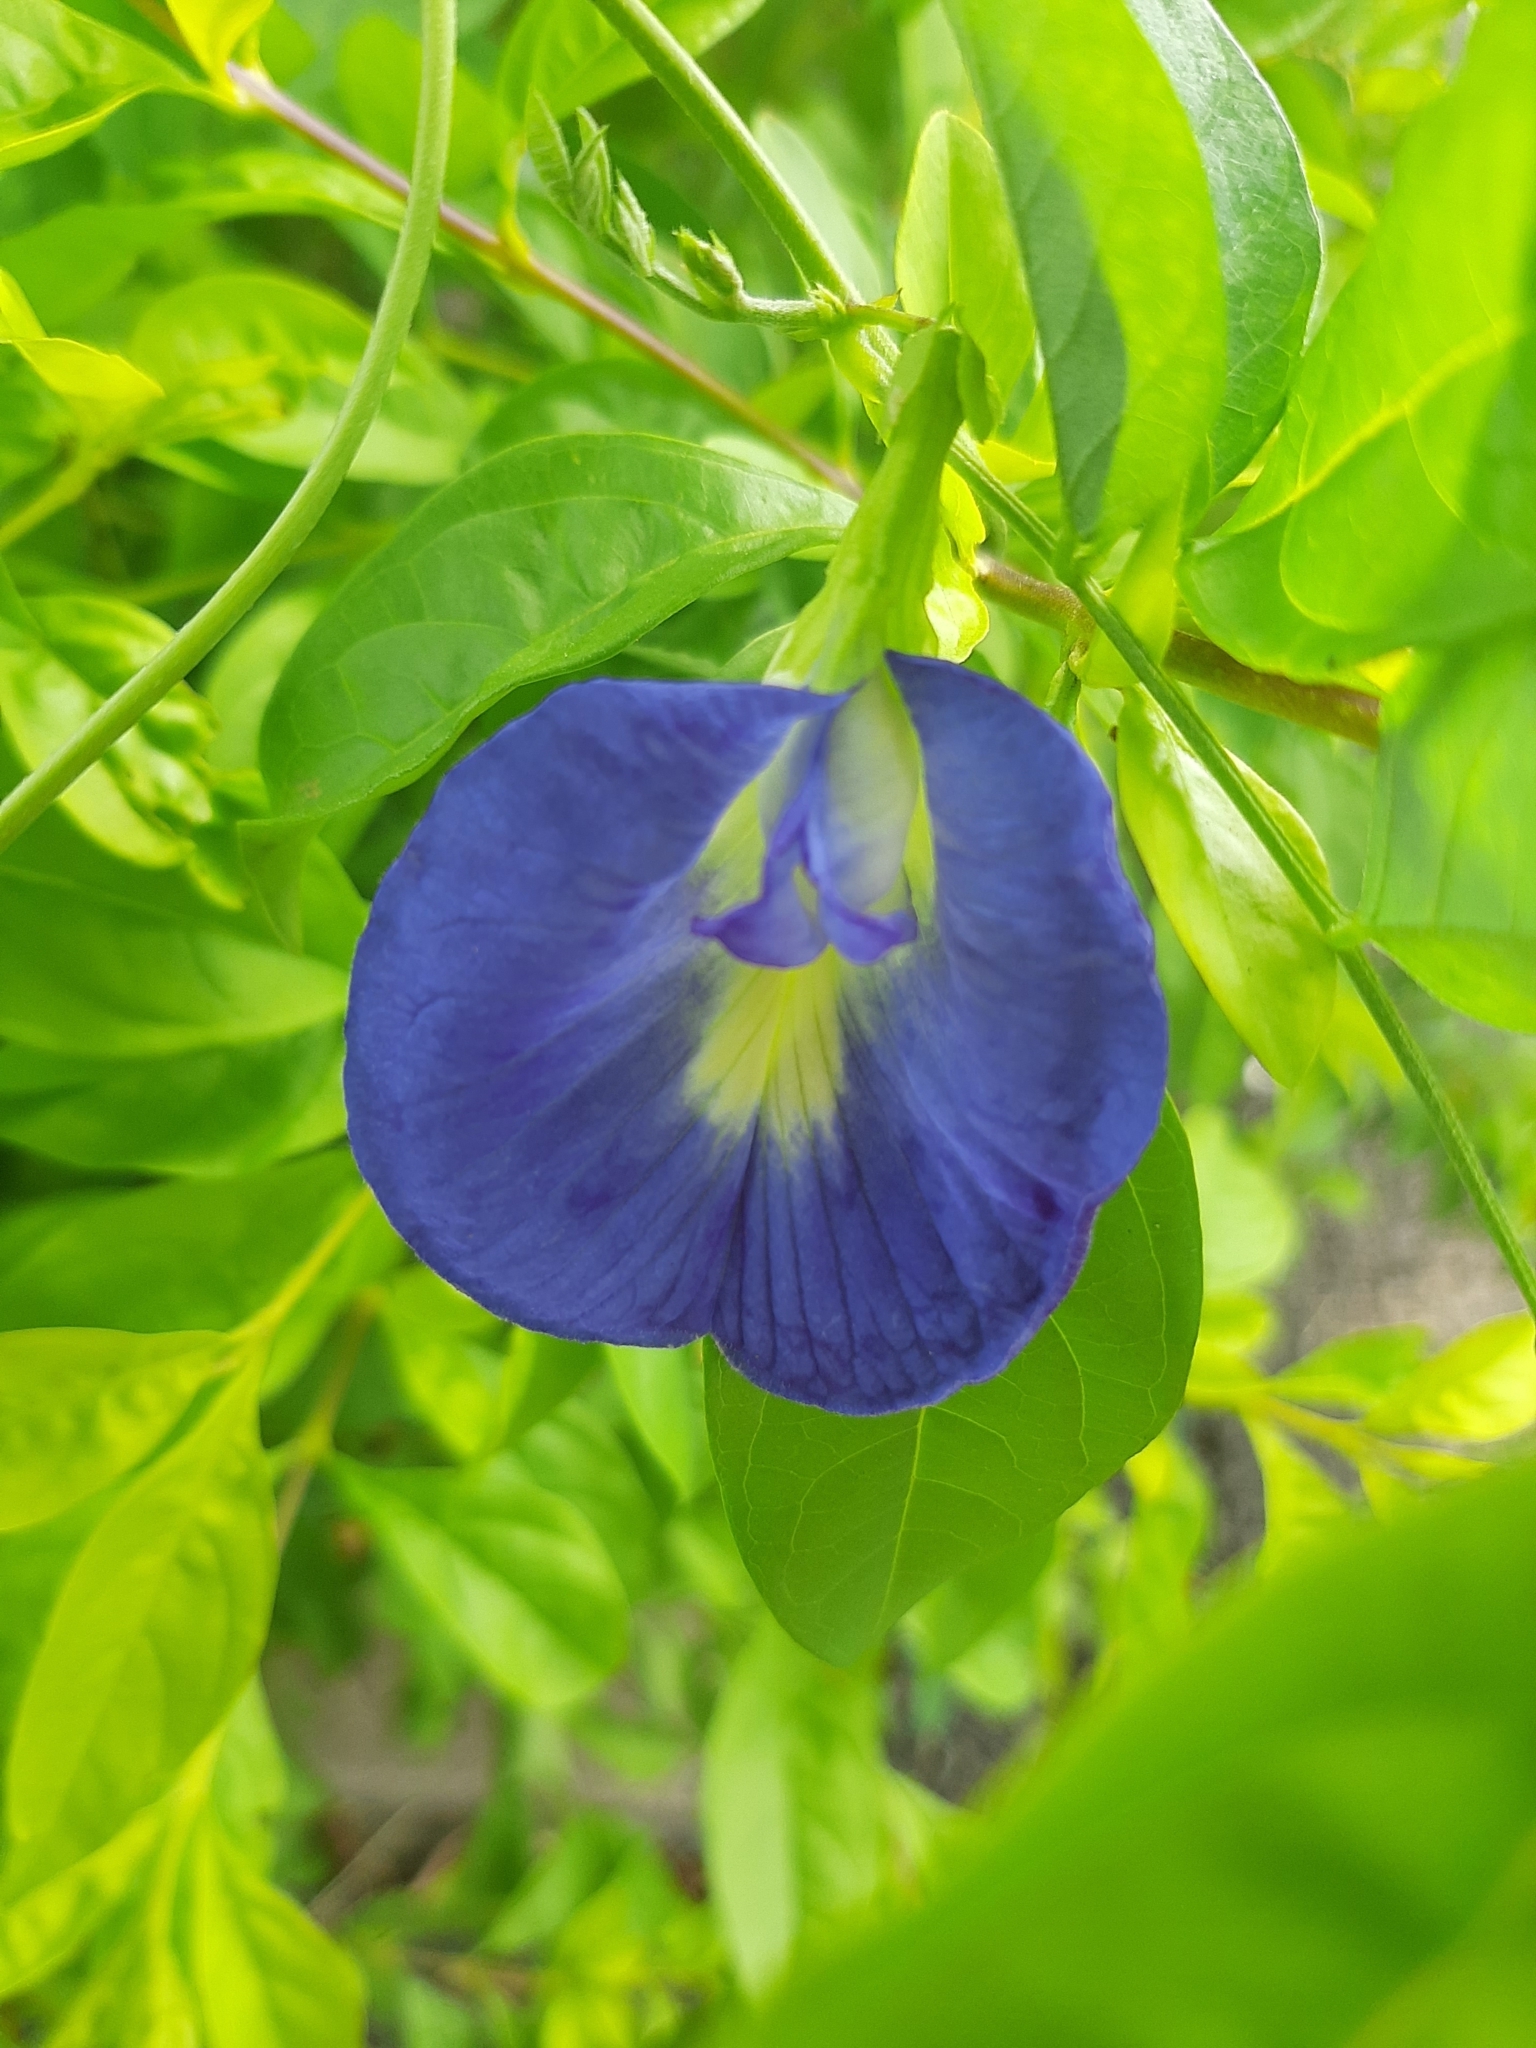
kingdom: Plantae
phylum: Tracheophyta
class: Magnoliopsida
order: Fabales
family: Fabaceae
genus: Clitoria
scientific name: Clitoria ternatea
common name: Asian pigeonwings
